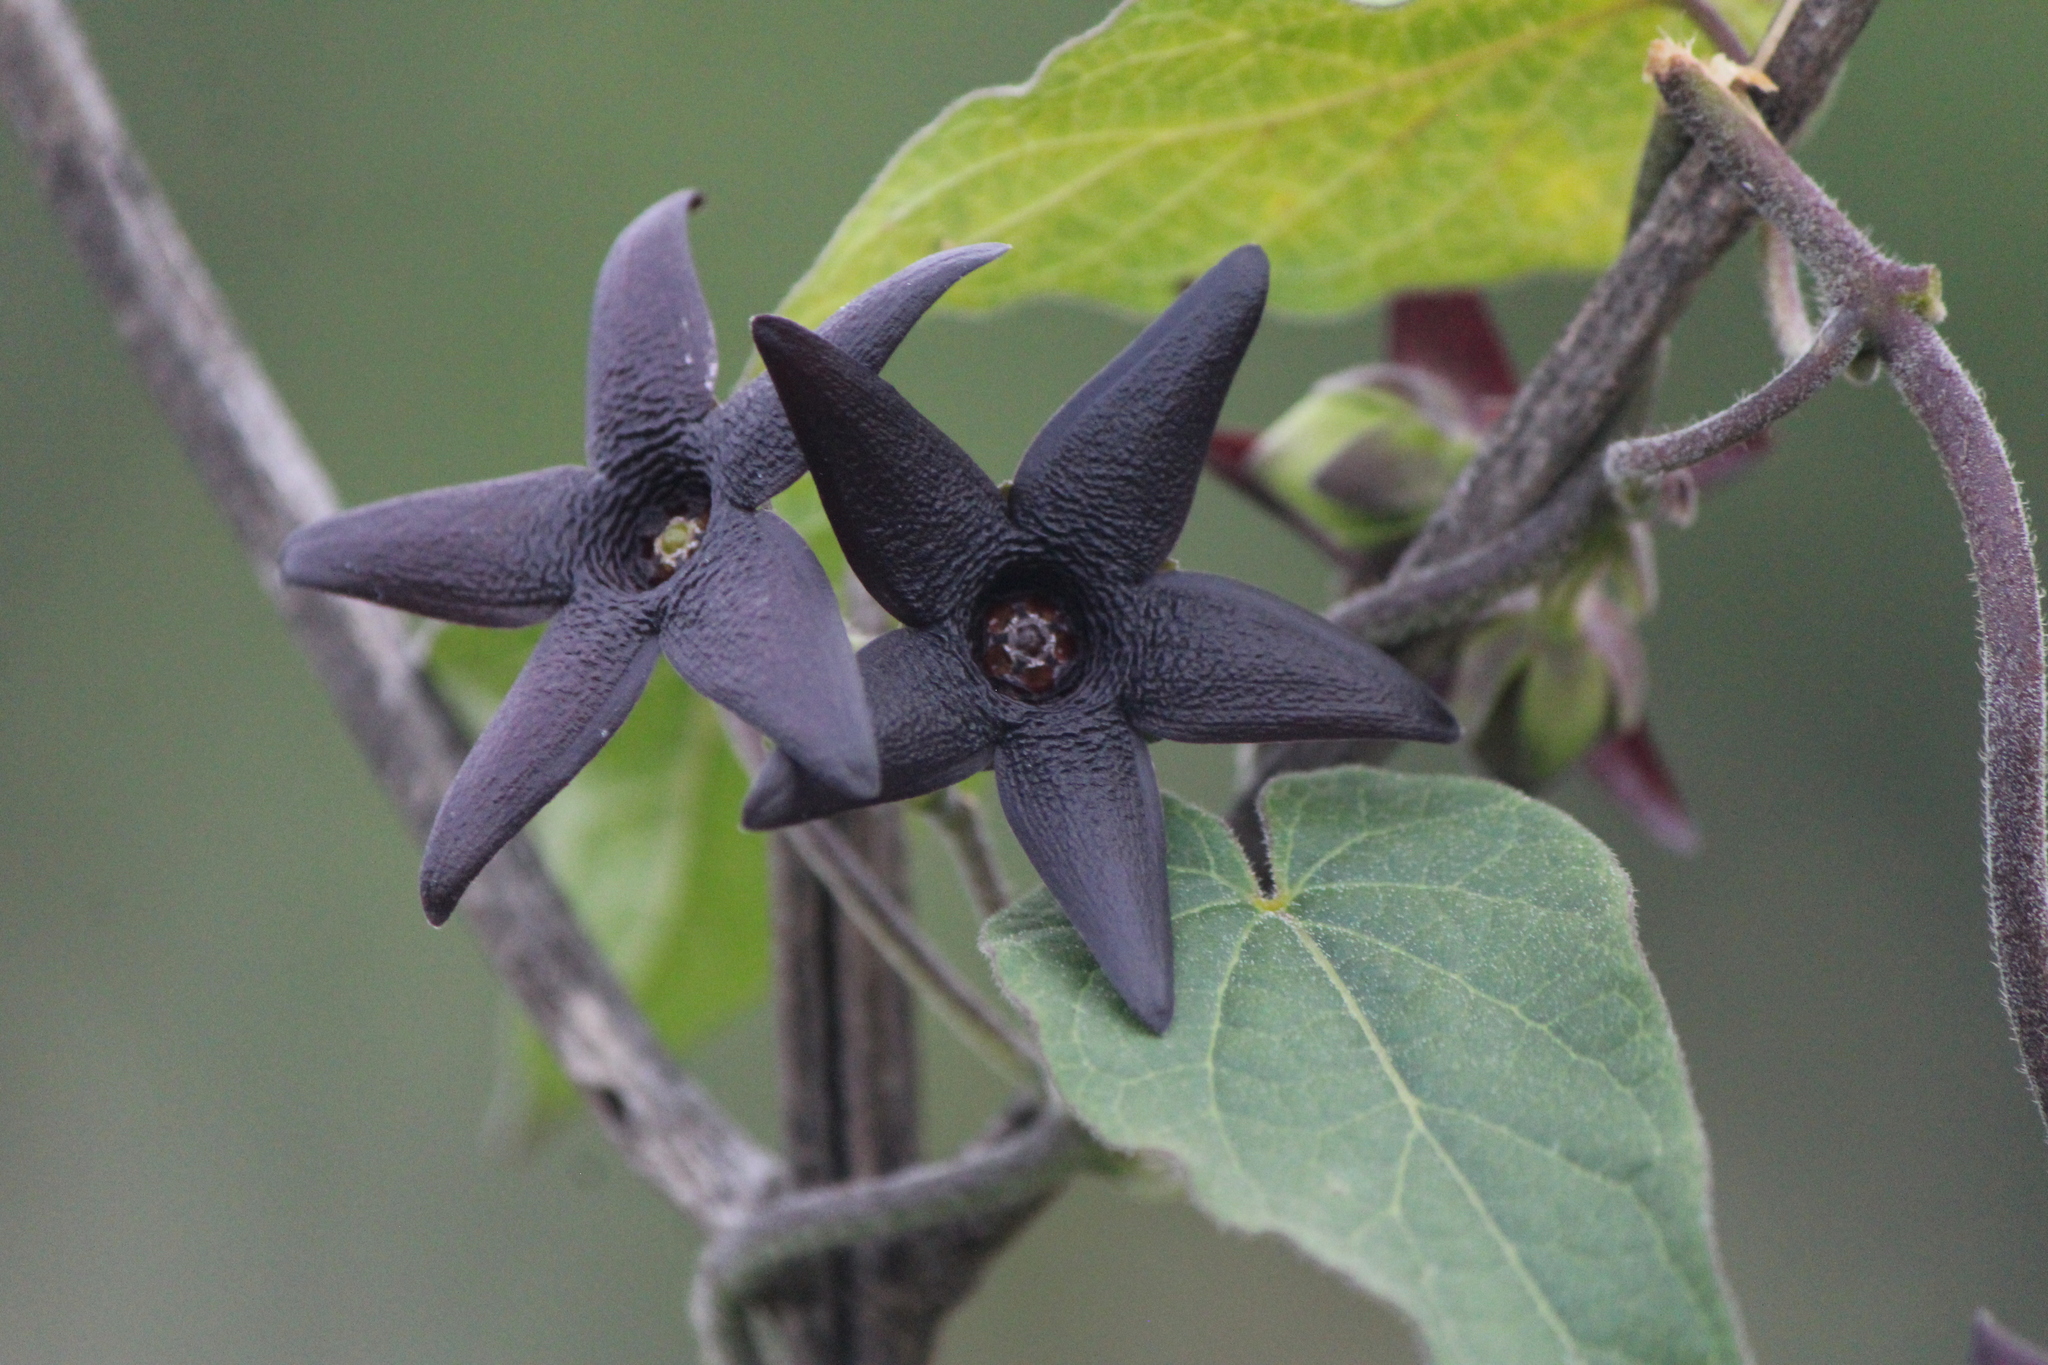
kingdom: Plantae
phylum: Tracheophyta
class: Magnoliopsida
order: Gentianales
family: Apocynaceae
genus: Matelea
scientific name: Matelea pilosa
